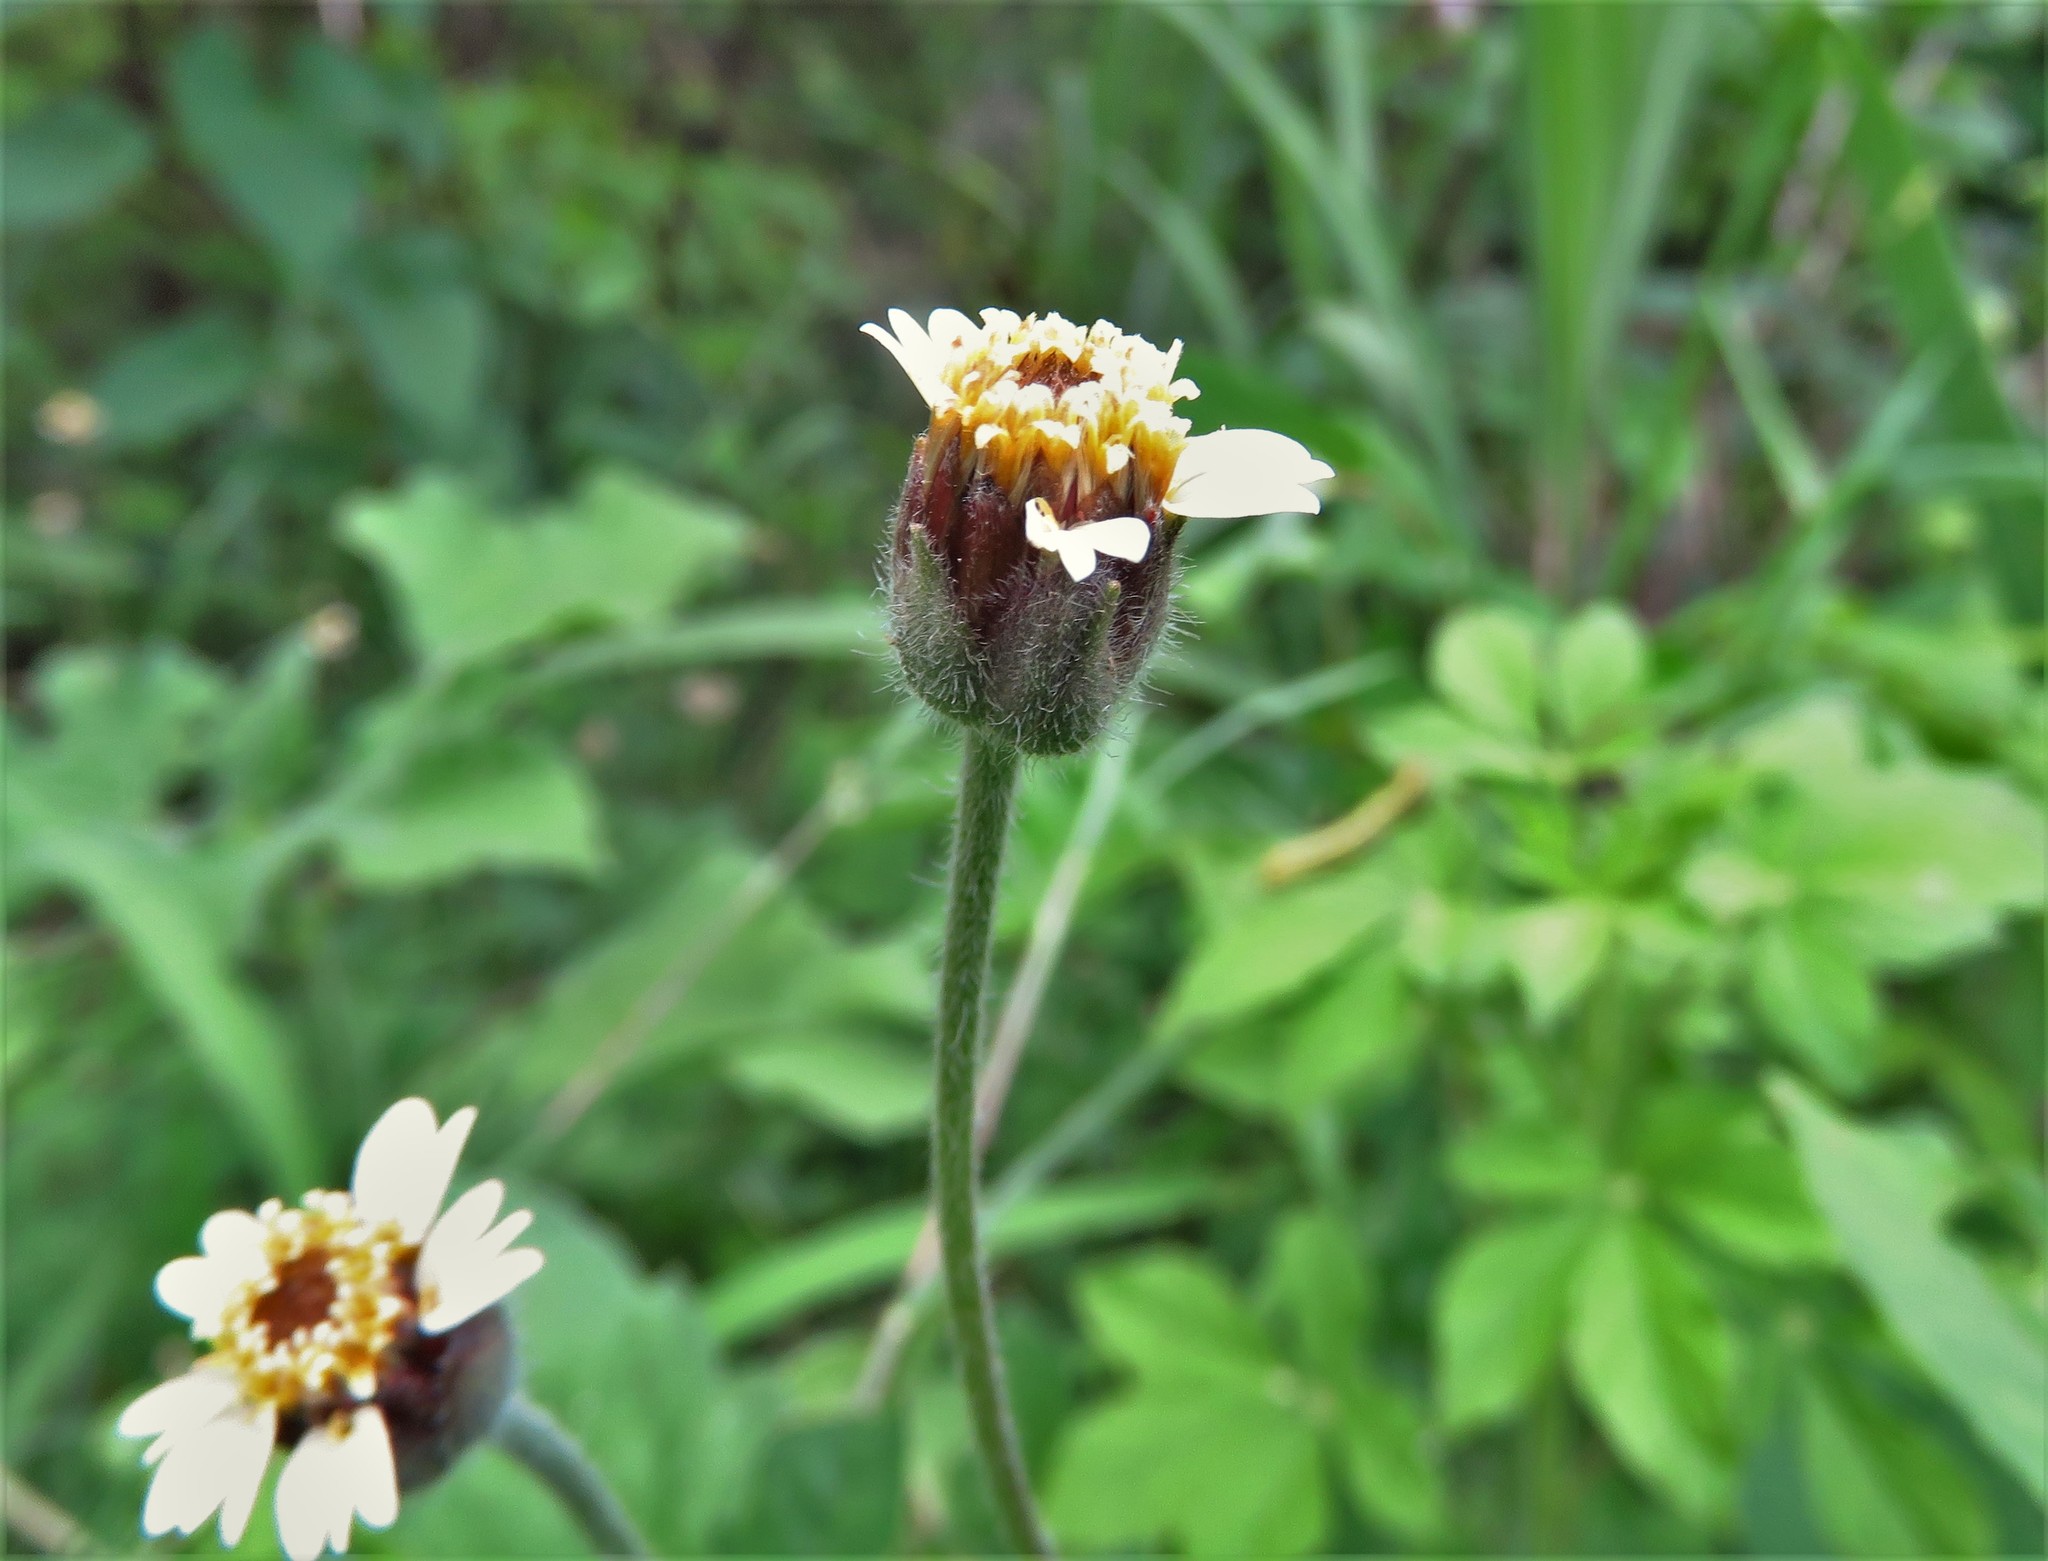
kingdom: Plantae
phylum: Tracheophyta
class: Magnoliopsida
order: Asterales
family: Asteraceae
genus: Tridax
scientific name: Tridax procumbens
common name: Coatbuttons
